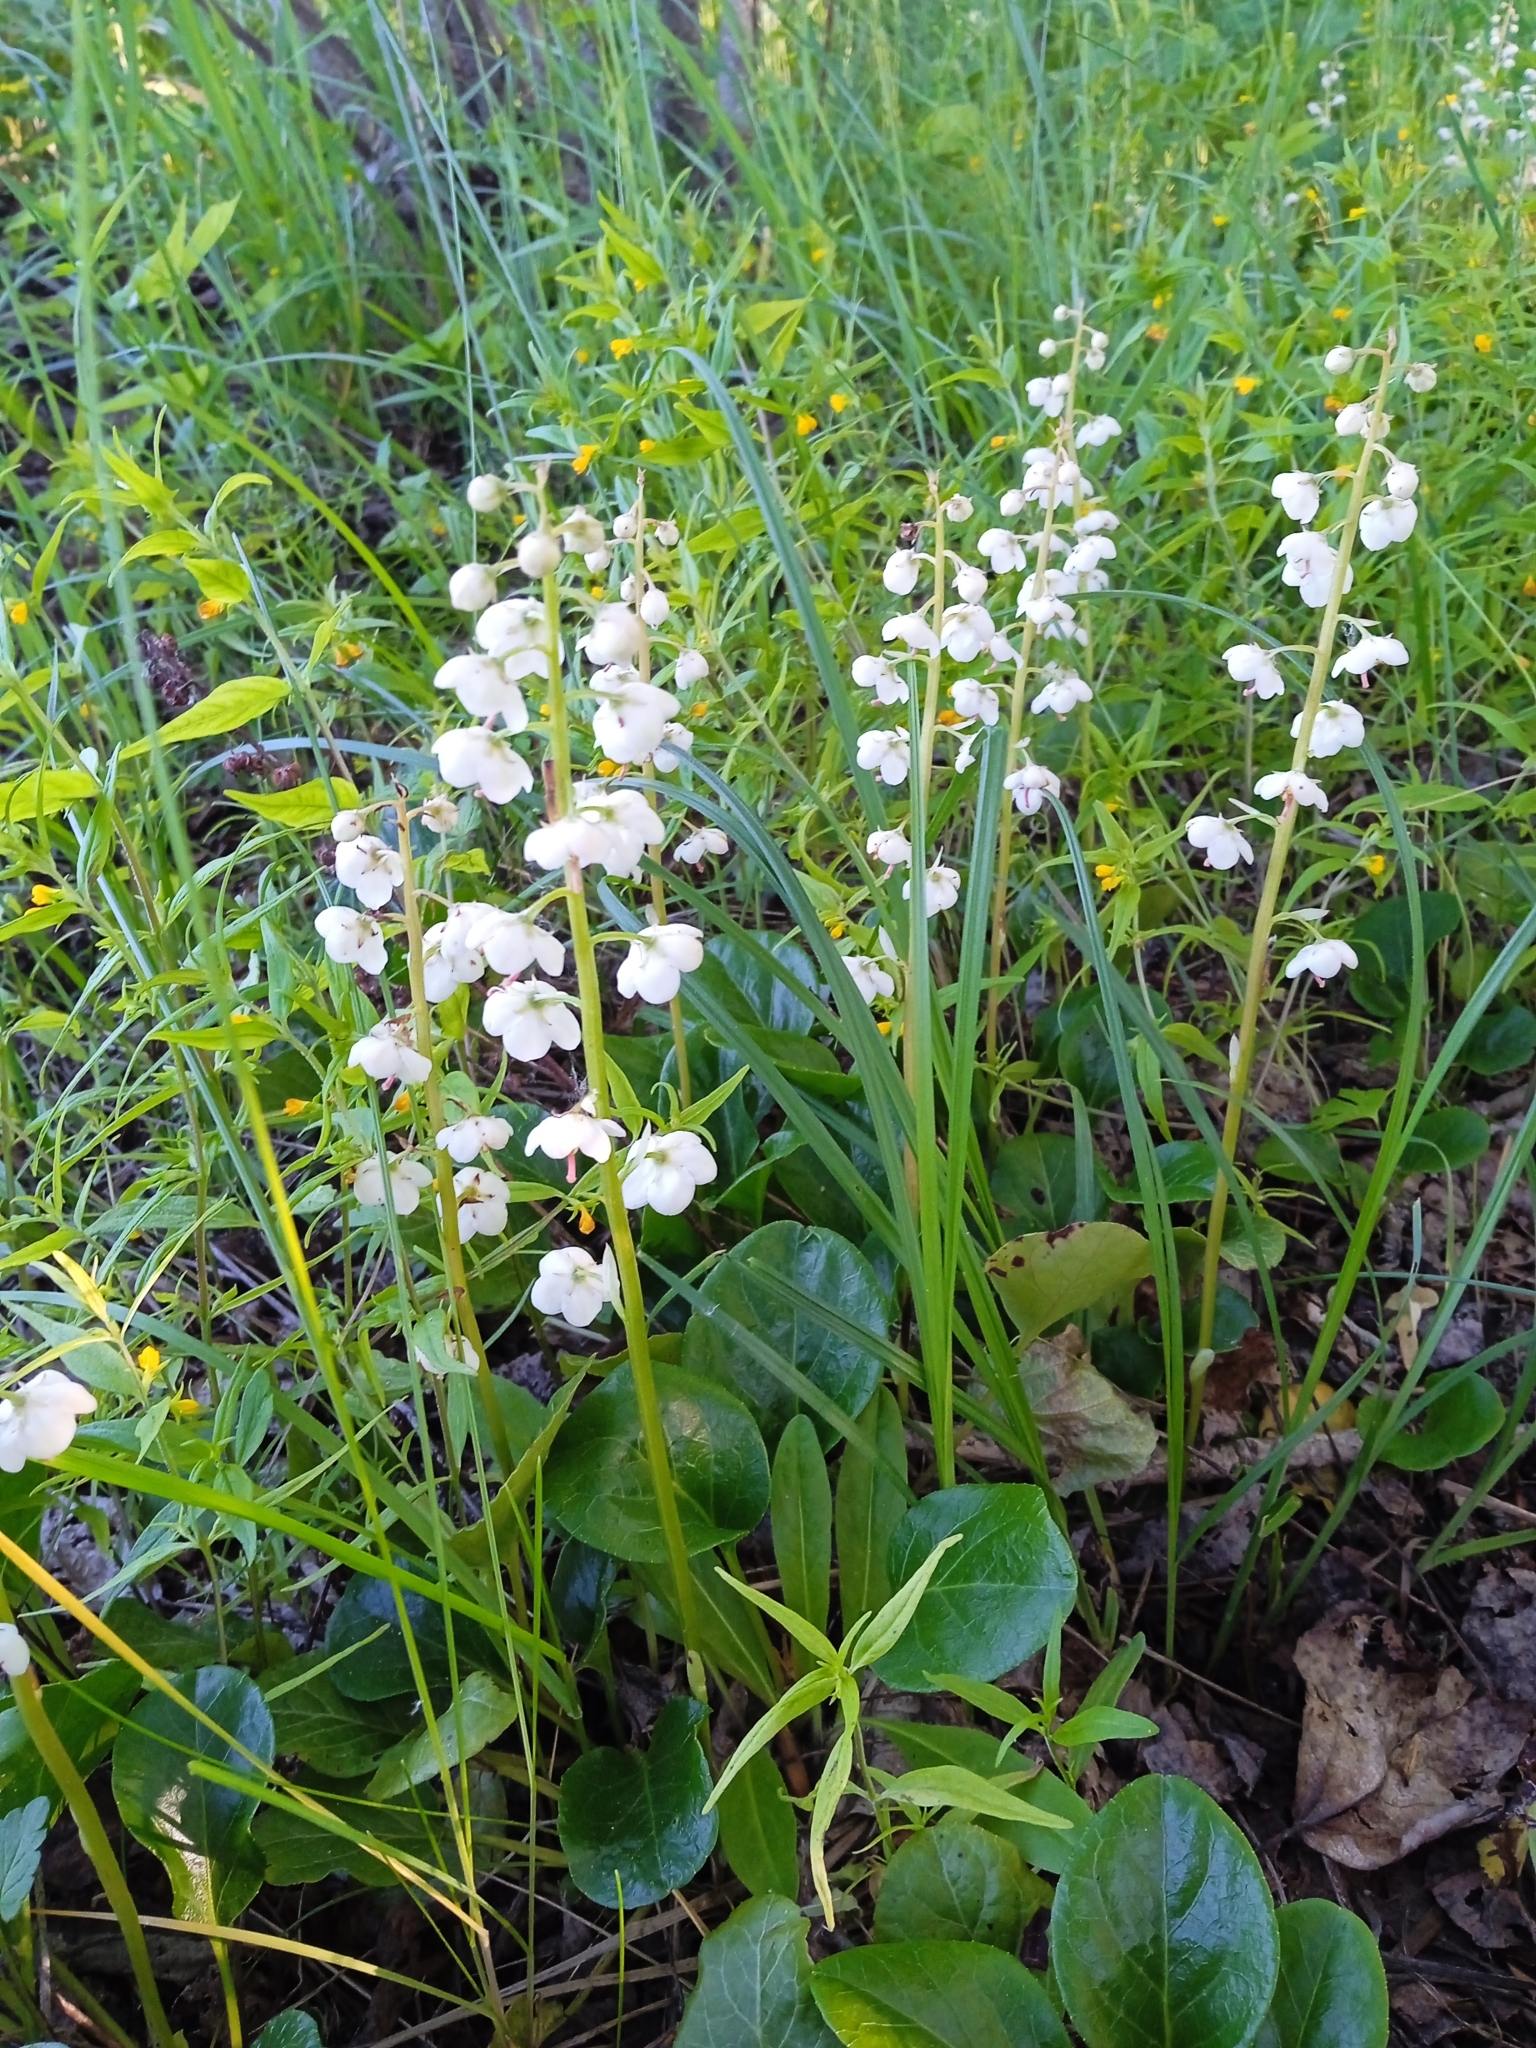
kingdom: Plantae
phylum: Tracheophyta
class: Magnoliopsida
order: Ericales
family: Ericaceae
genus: Pyrola
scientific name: Pyrola rotundifolia
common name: Round-leaved wintergreen
